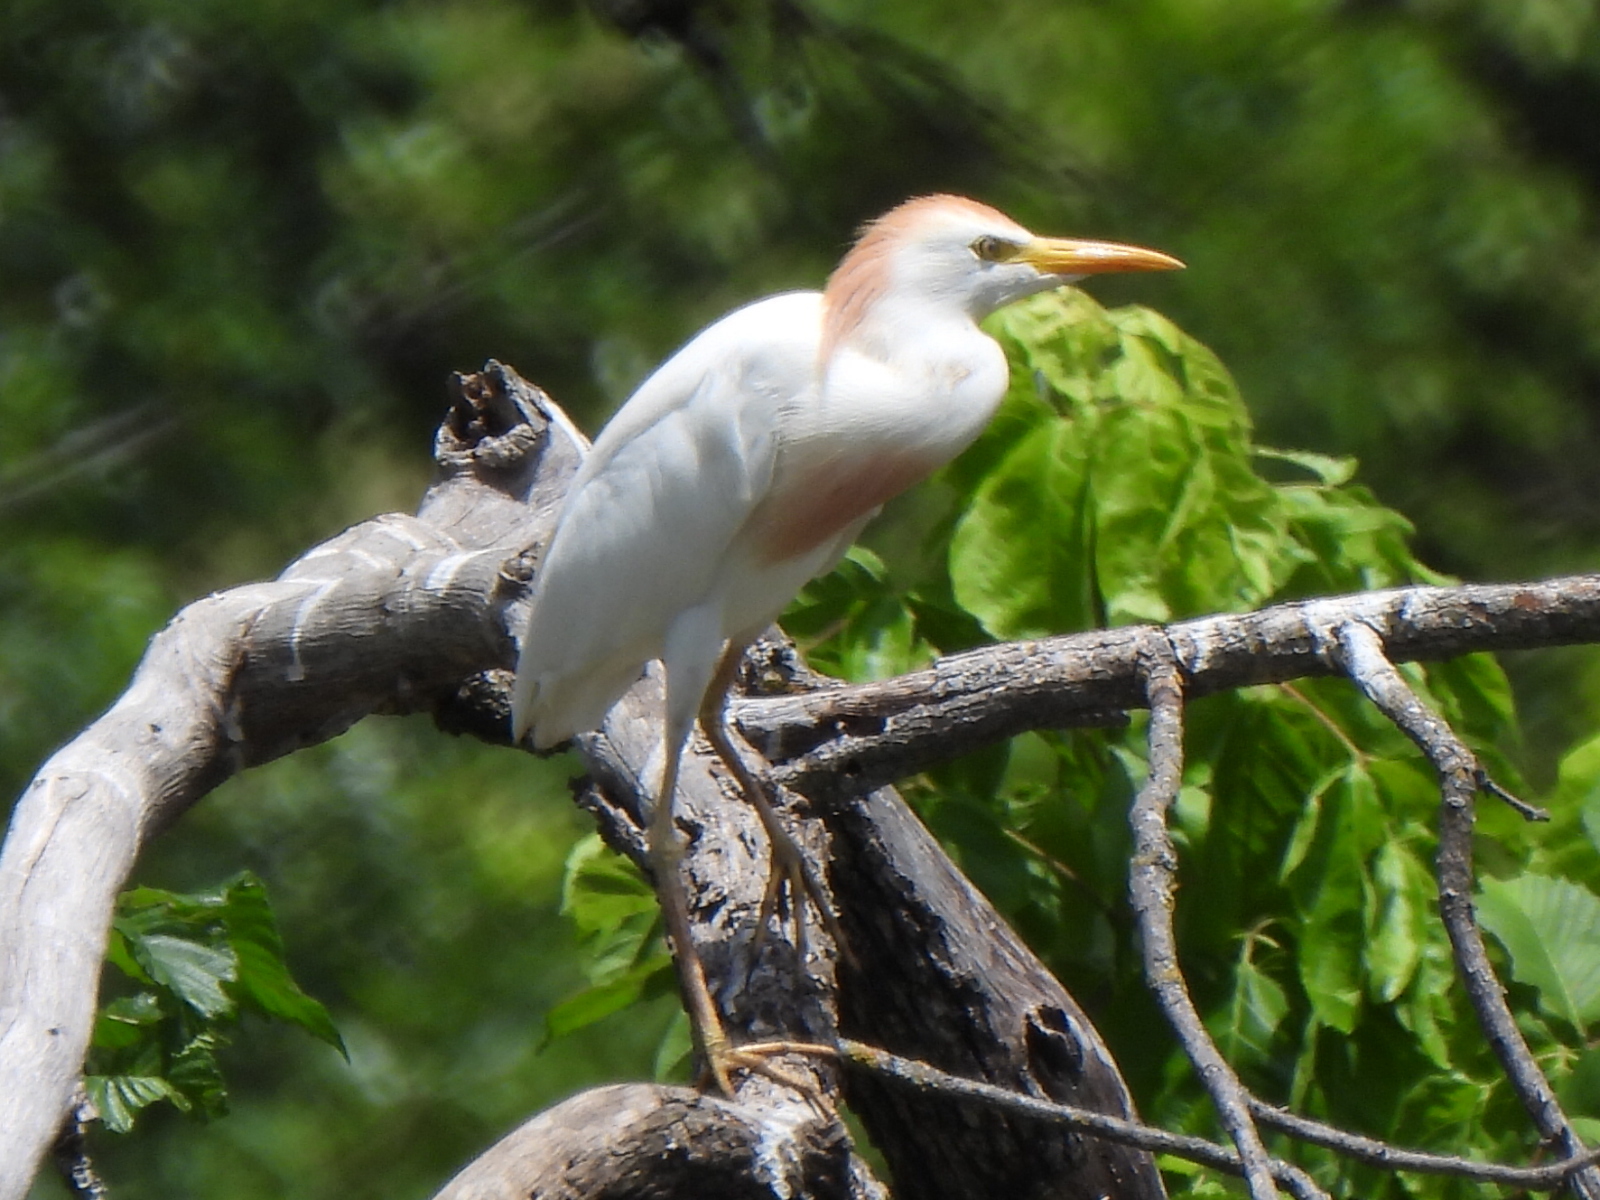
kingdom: Animalia
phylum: Chordata
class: Aves
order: Pelecaniformes
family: Ardeidae
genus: Bubulcus
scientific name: Bubulcus ibis
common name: Cattle egret
